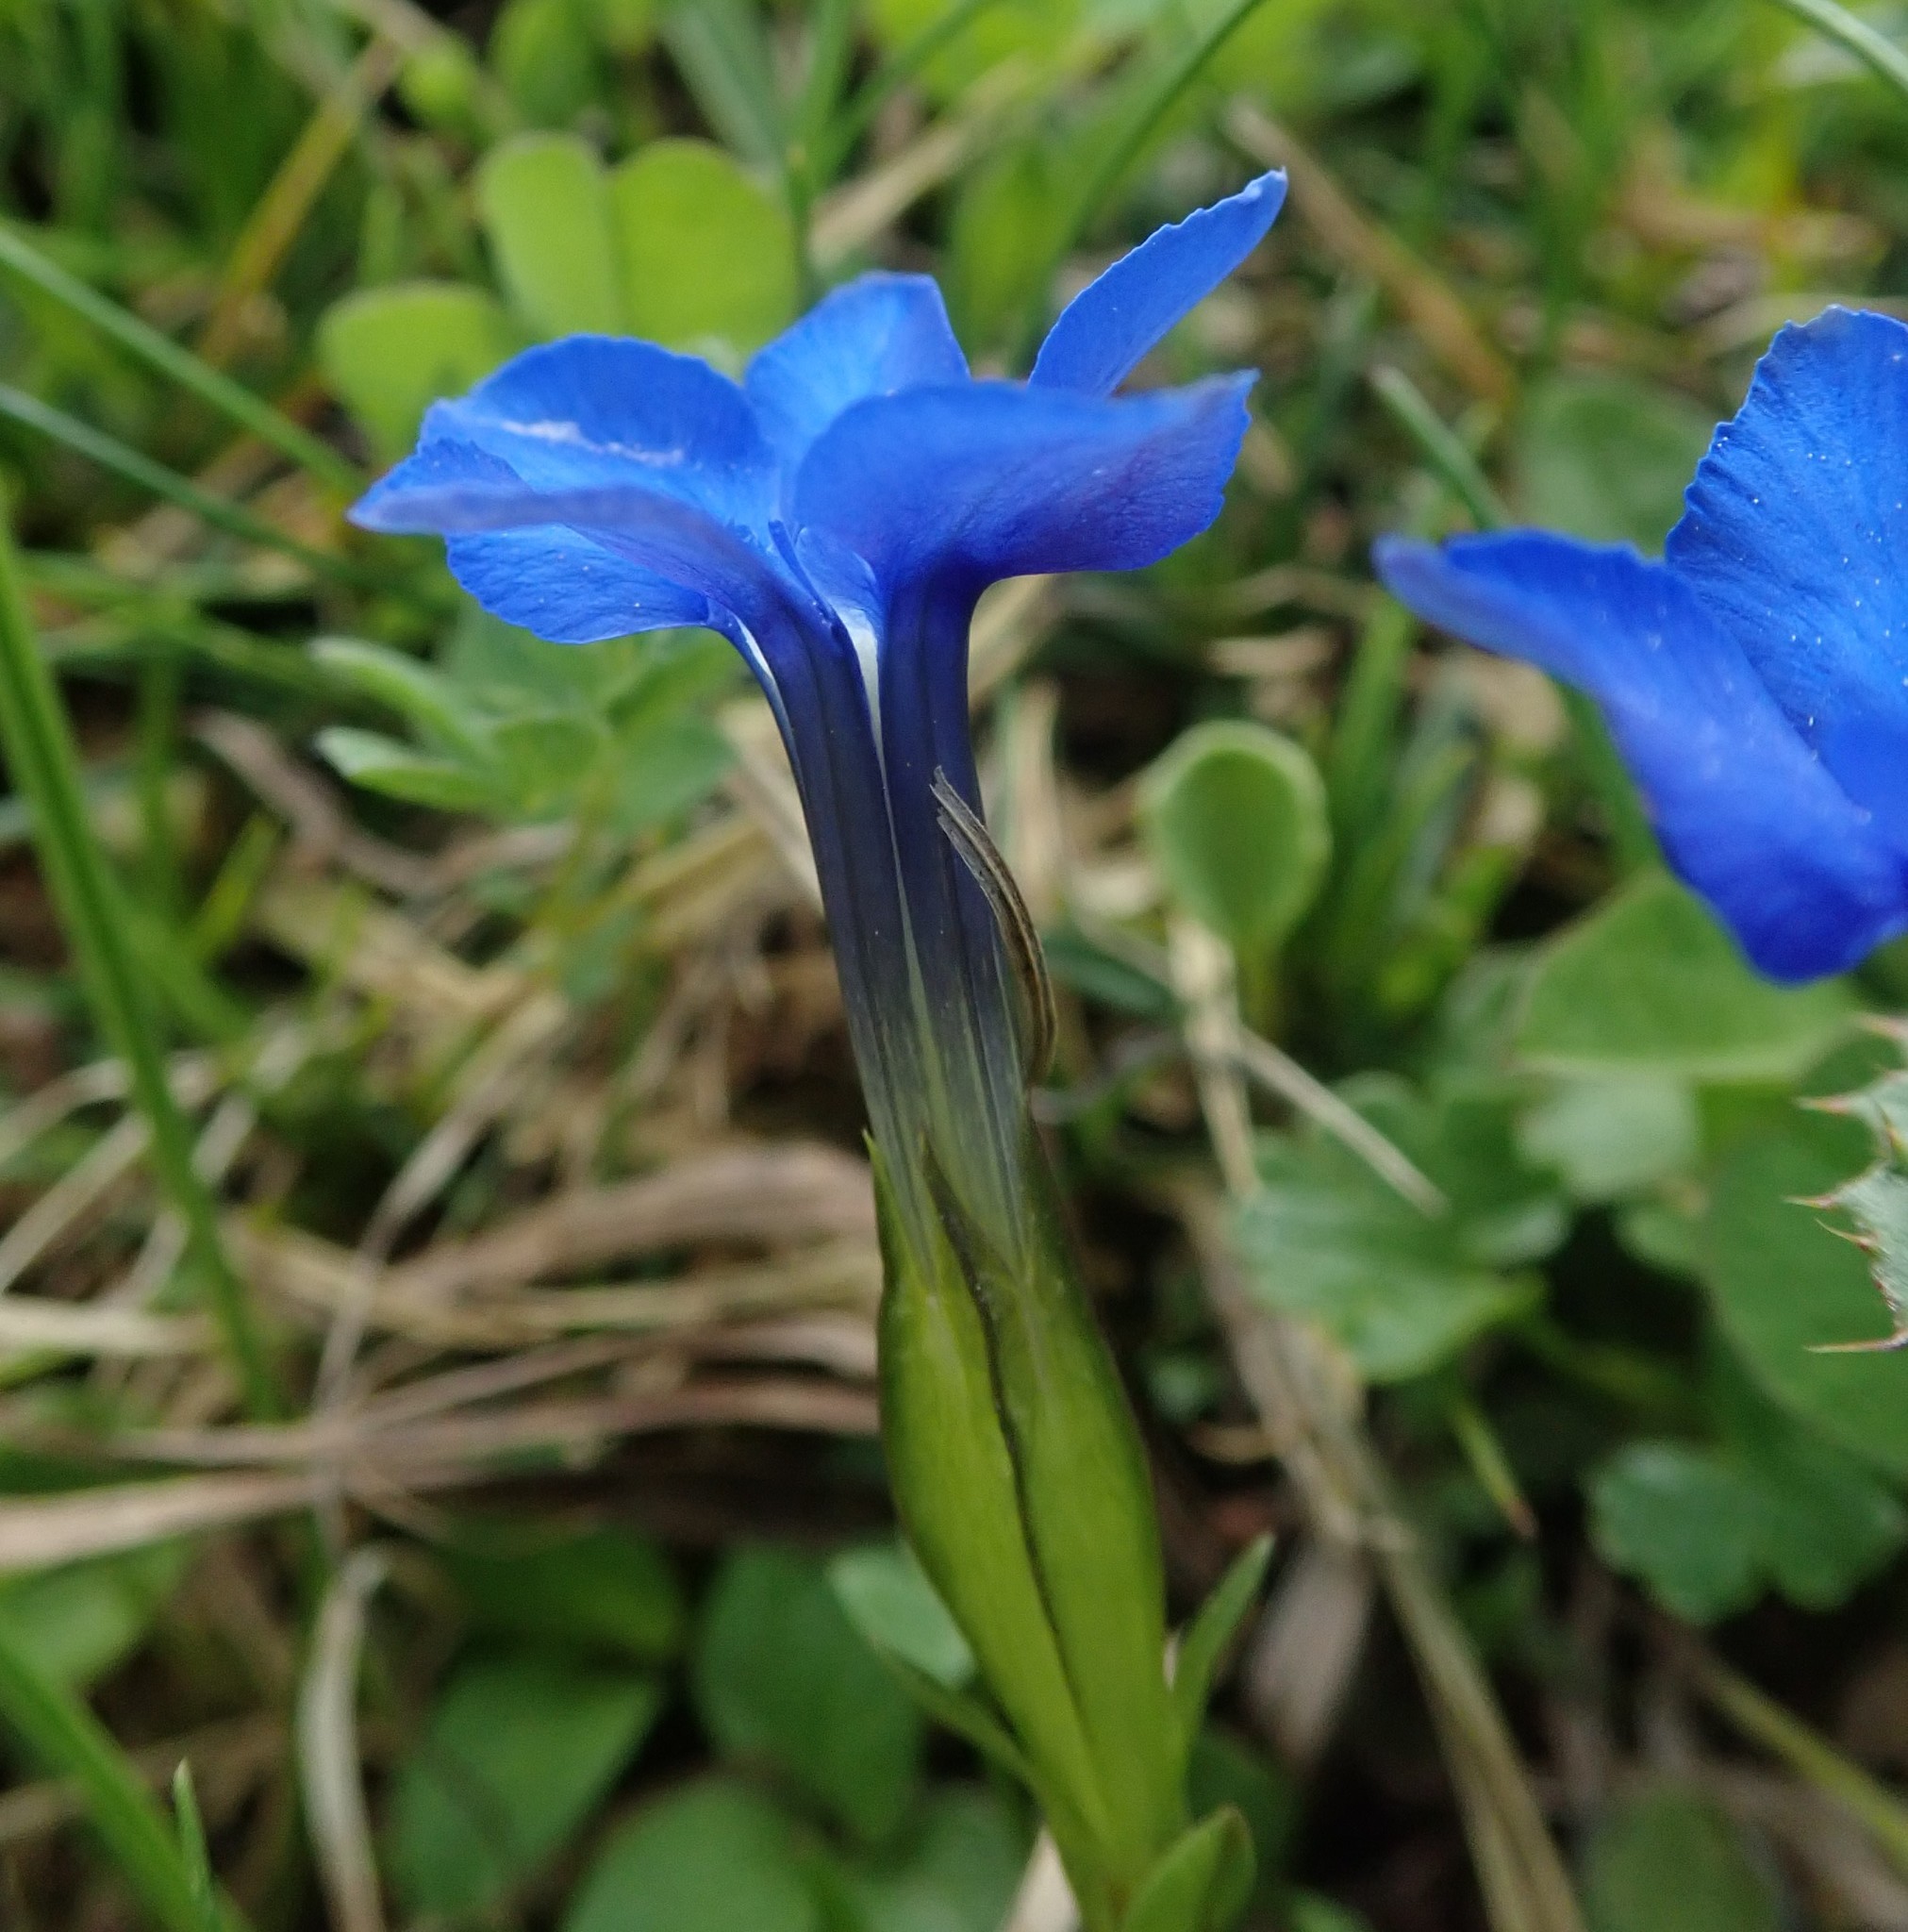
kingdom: Plantae
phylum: Tracheophyta
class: Magnoliopsida
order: Gentianales
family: Gentianaceae
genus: Gentiana
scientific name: Gentiana verna
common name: Spring gentian
